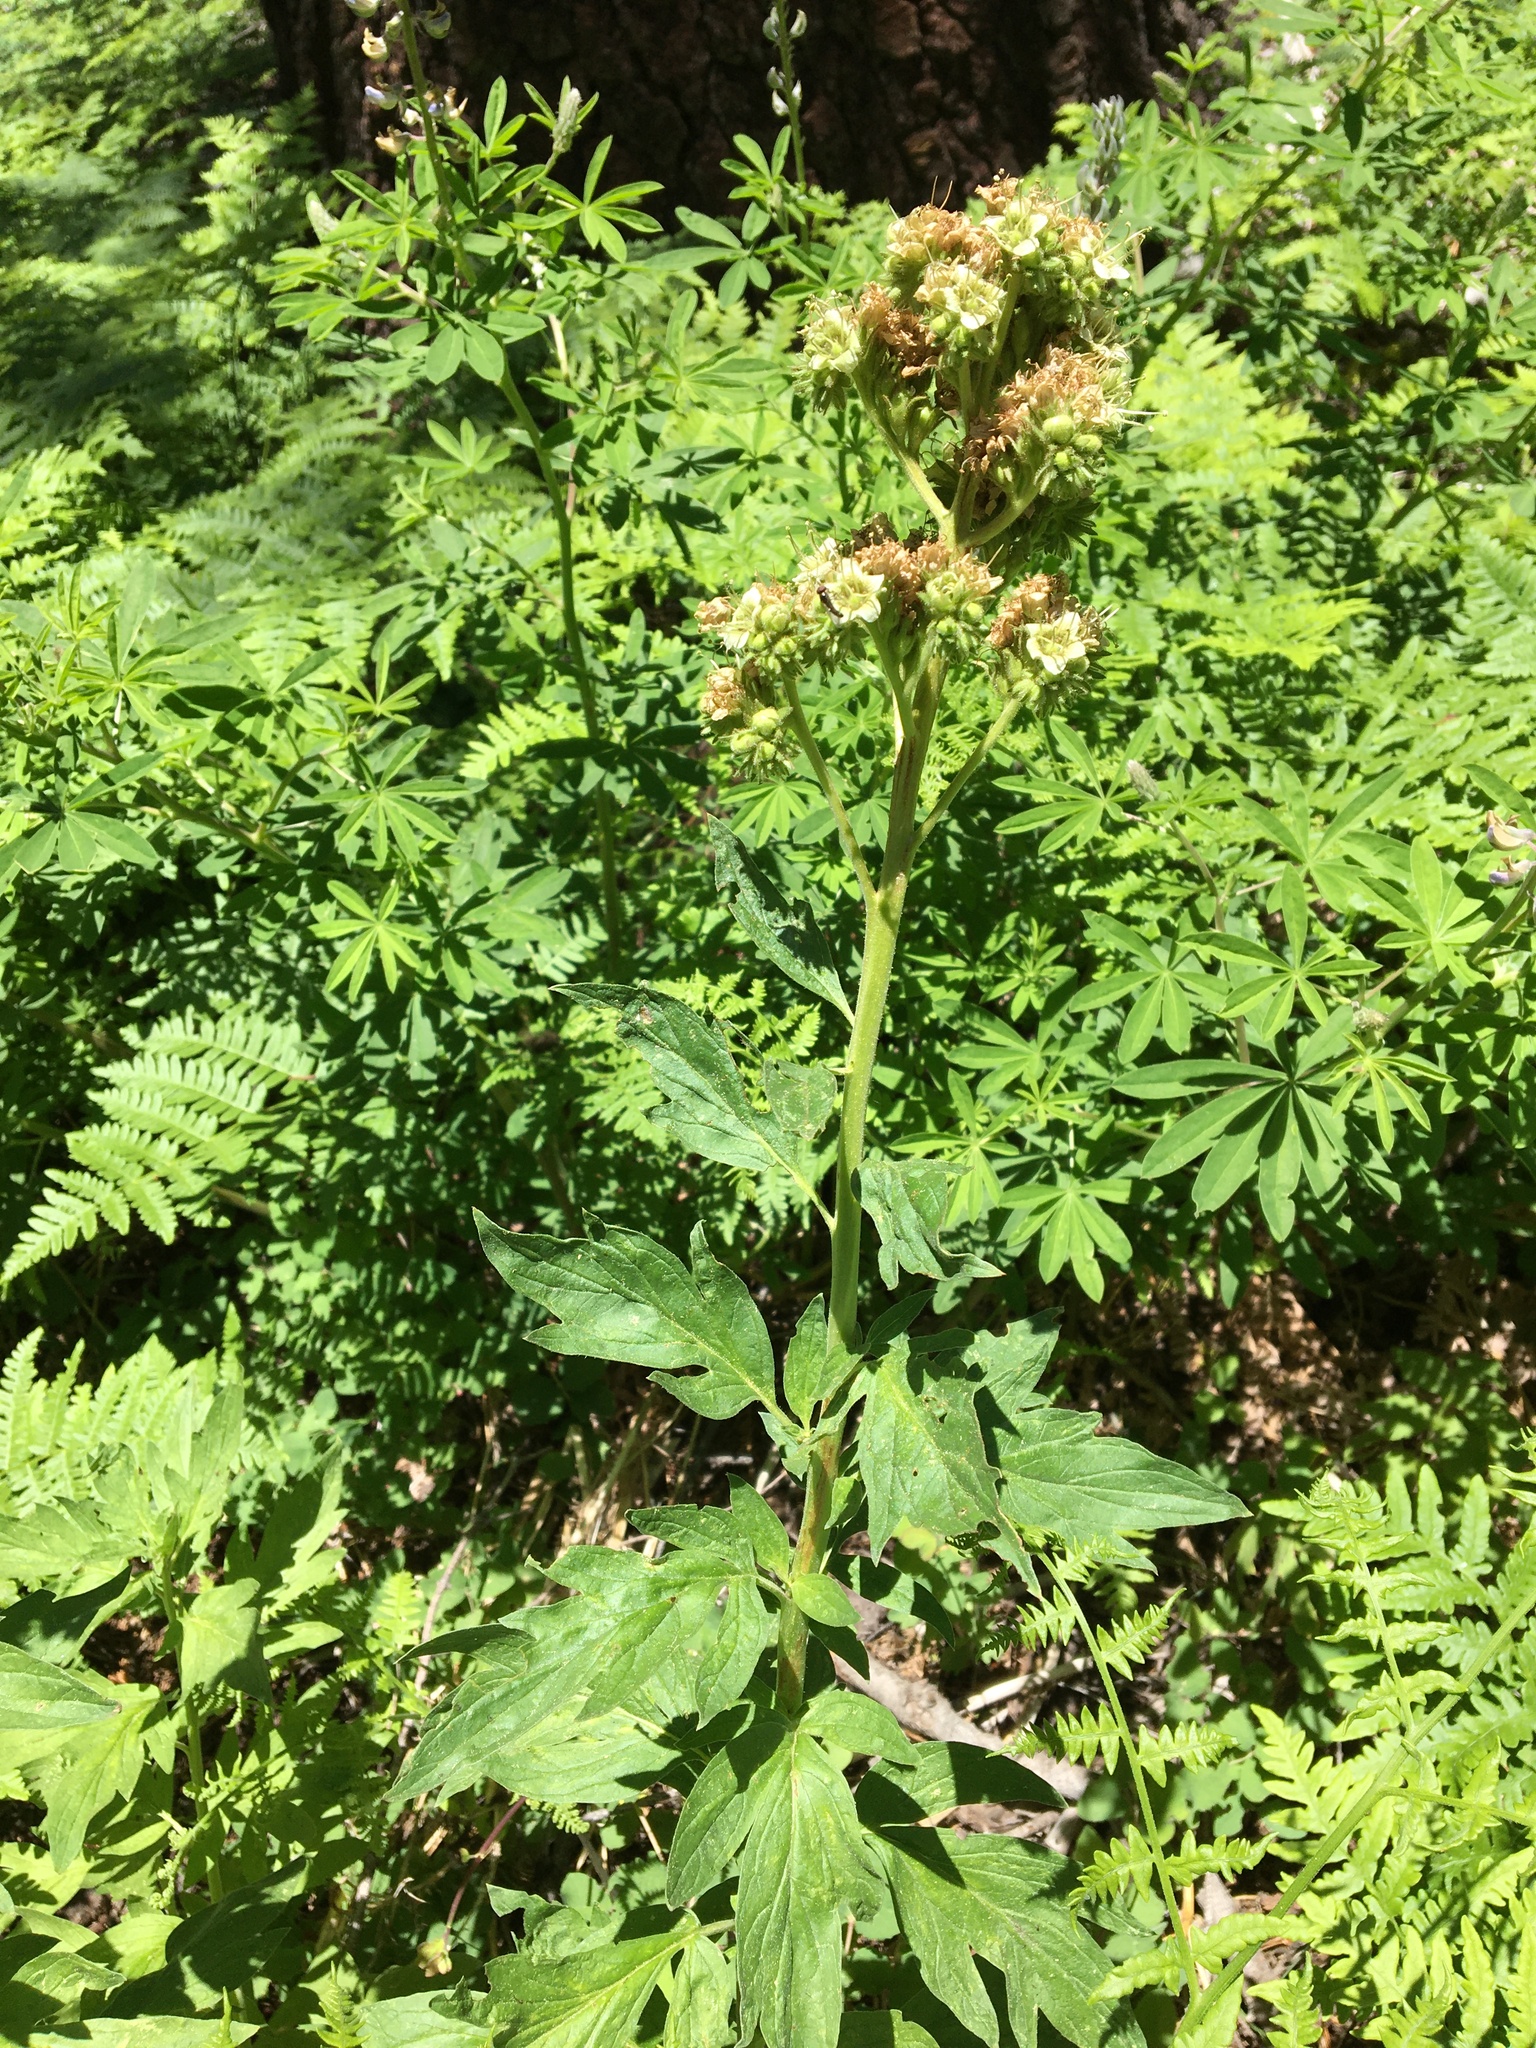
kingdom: Plantae
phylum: Tracheophyta
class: Magnoliopsida
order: Boraginales
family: Hydrophyllaceae
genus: Phacelia
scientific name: Phacelia procera
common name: Tall phacelia
